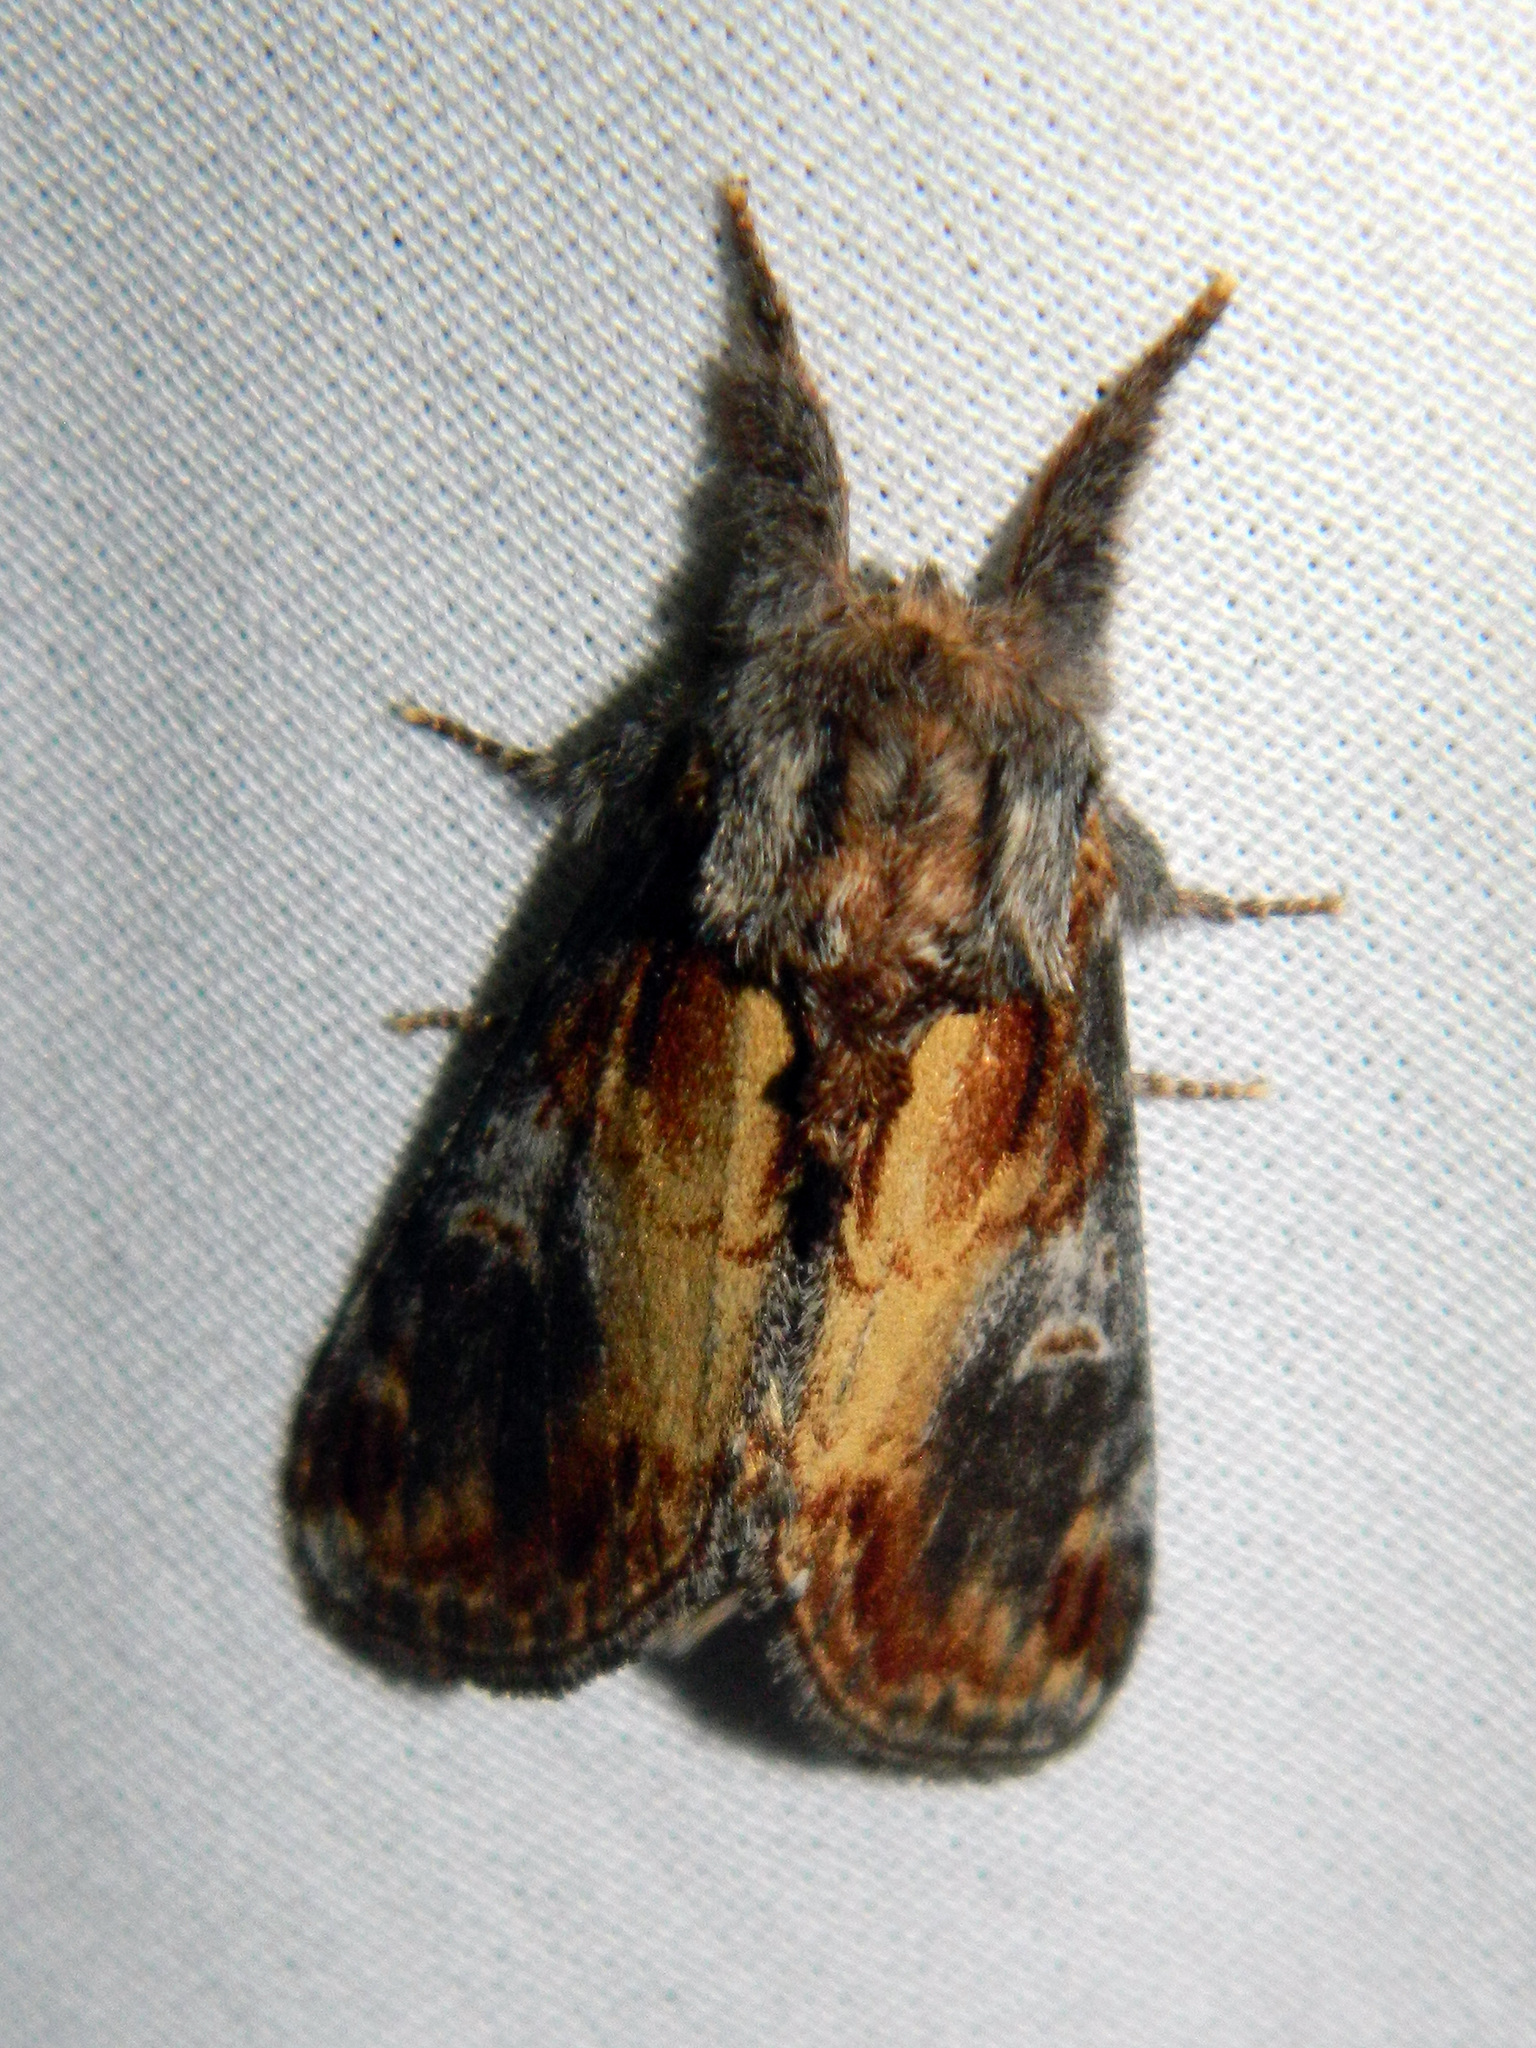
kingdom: Animalia
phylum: Arthropoda
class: Insecta
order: Lepidoptera
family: Notodontidae
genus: Notodonta
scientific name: Notodonta scitipennis
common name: Finned-willow prominent moth
